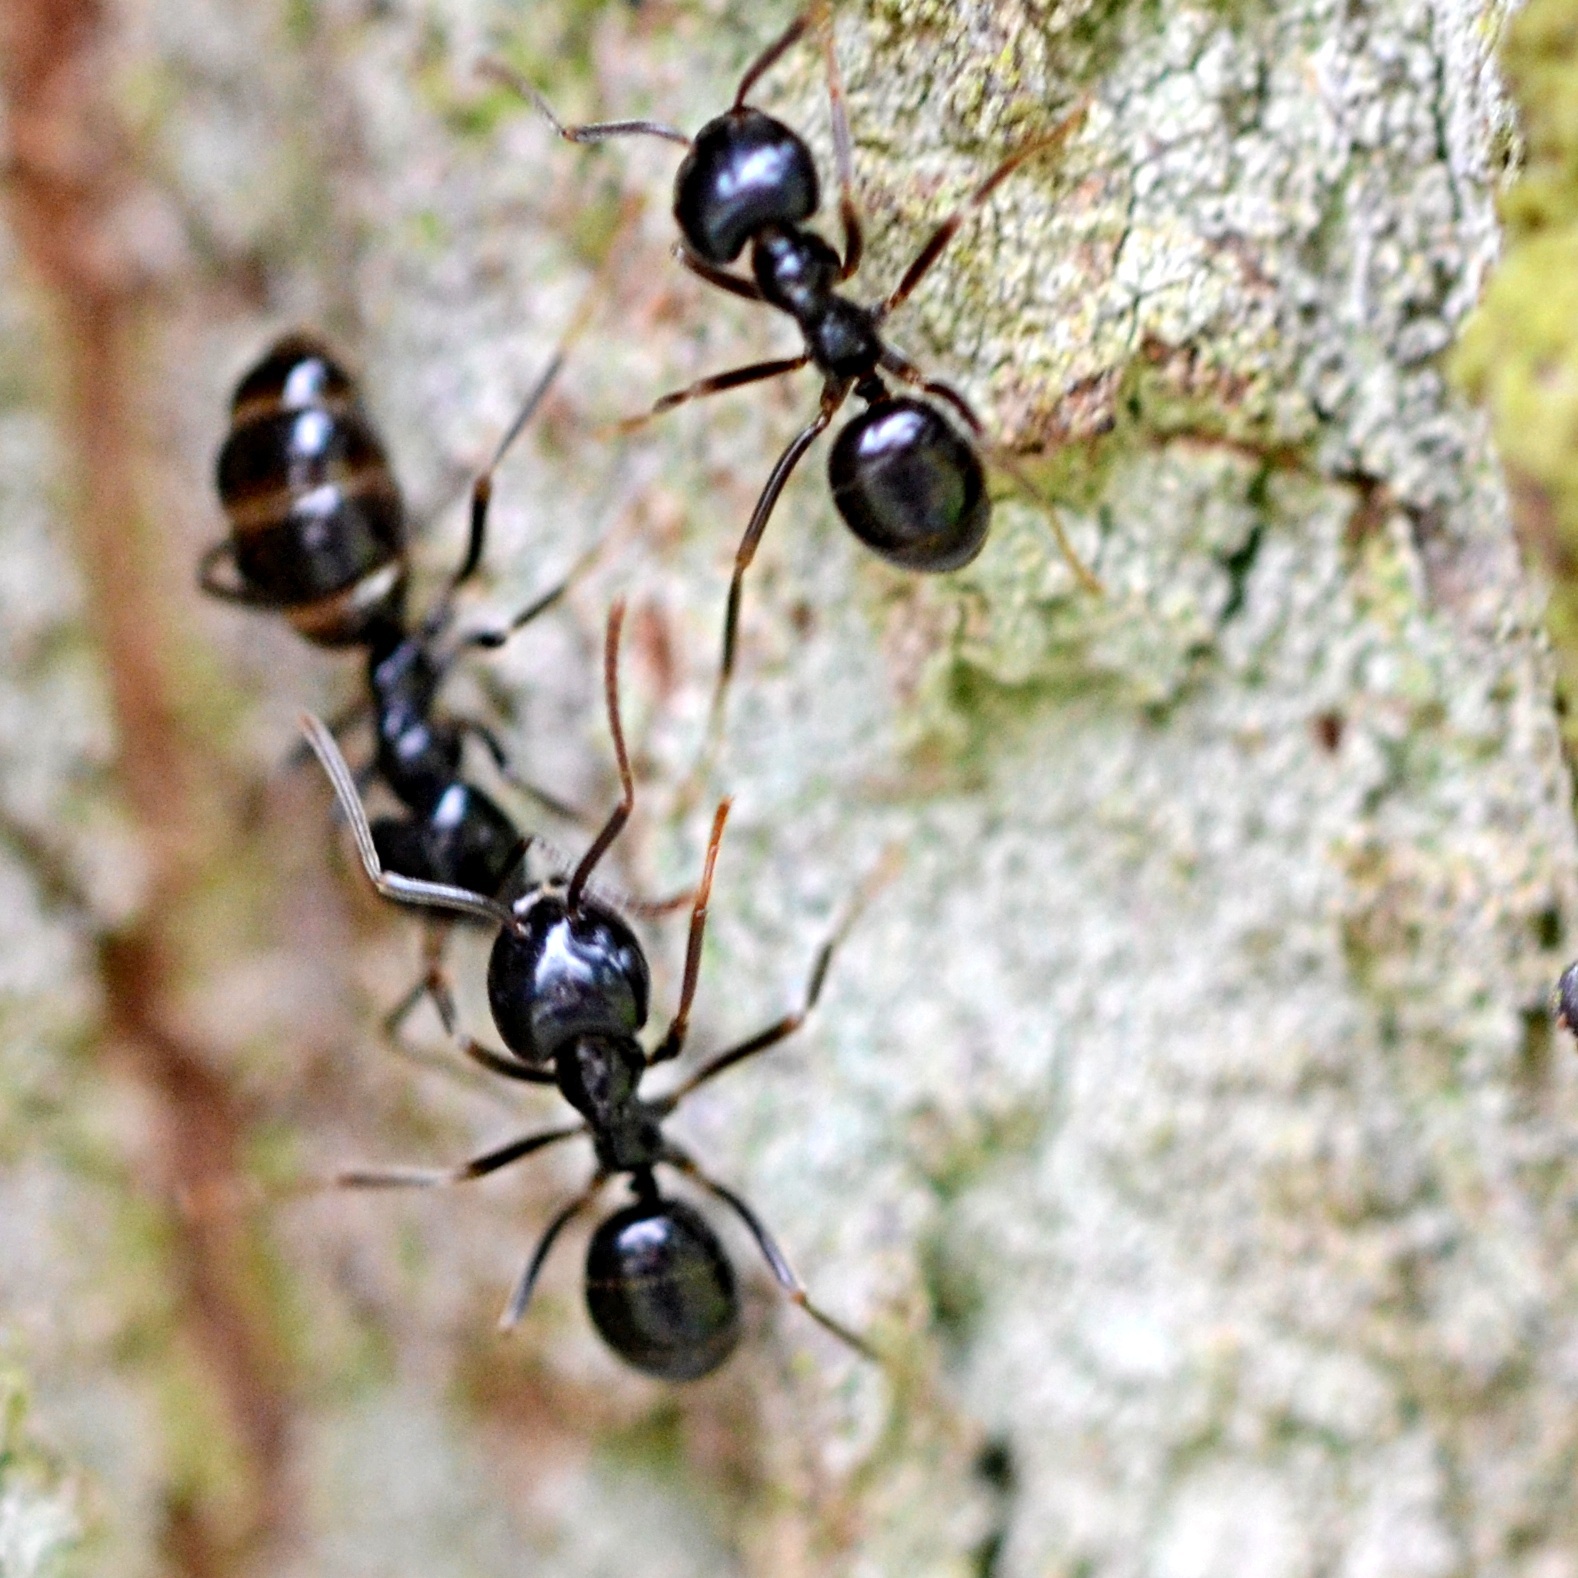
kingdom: Animalia
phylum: Arthropoda
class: Insecta
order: Hymenoptera
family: Formicidae
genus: Lasius
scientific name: Lasius fuliginosus
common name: Jet ant
